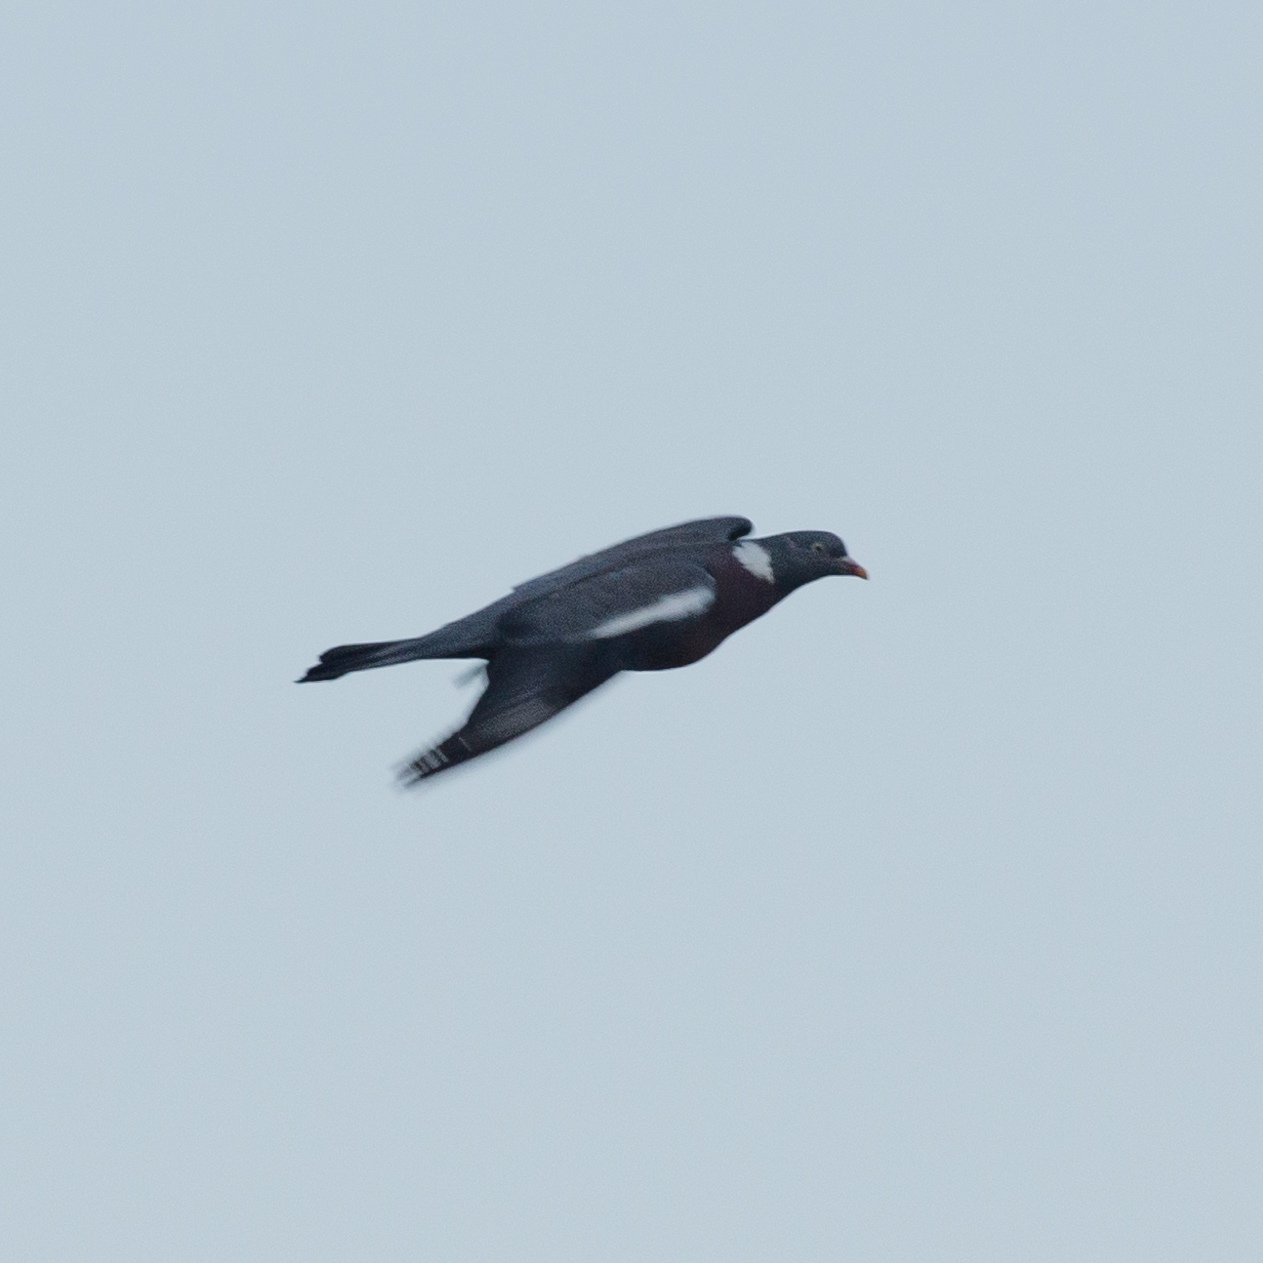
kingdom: Animalia
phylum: Chordata
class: Aves
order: Columbiformes
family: Columbidae
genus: Columba
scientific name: Columba palumbus
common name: Common wood pigeon
